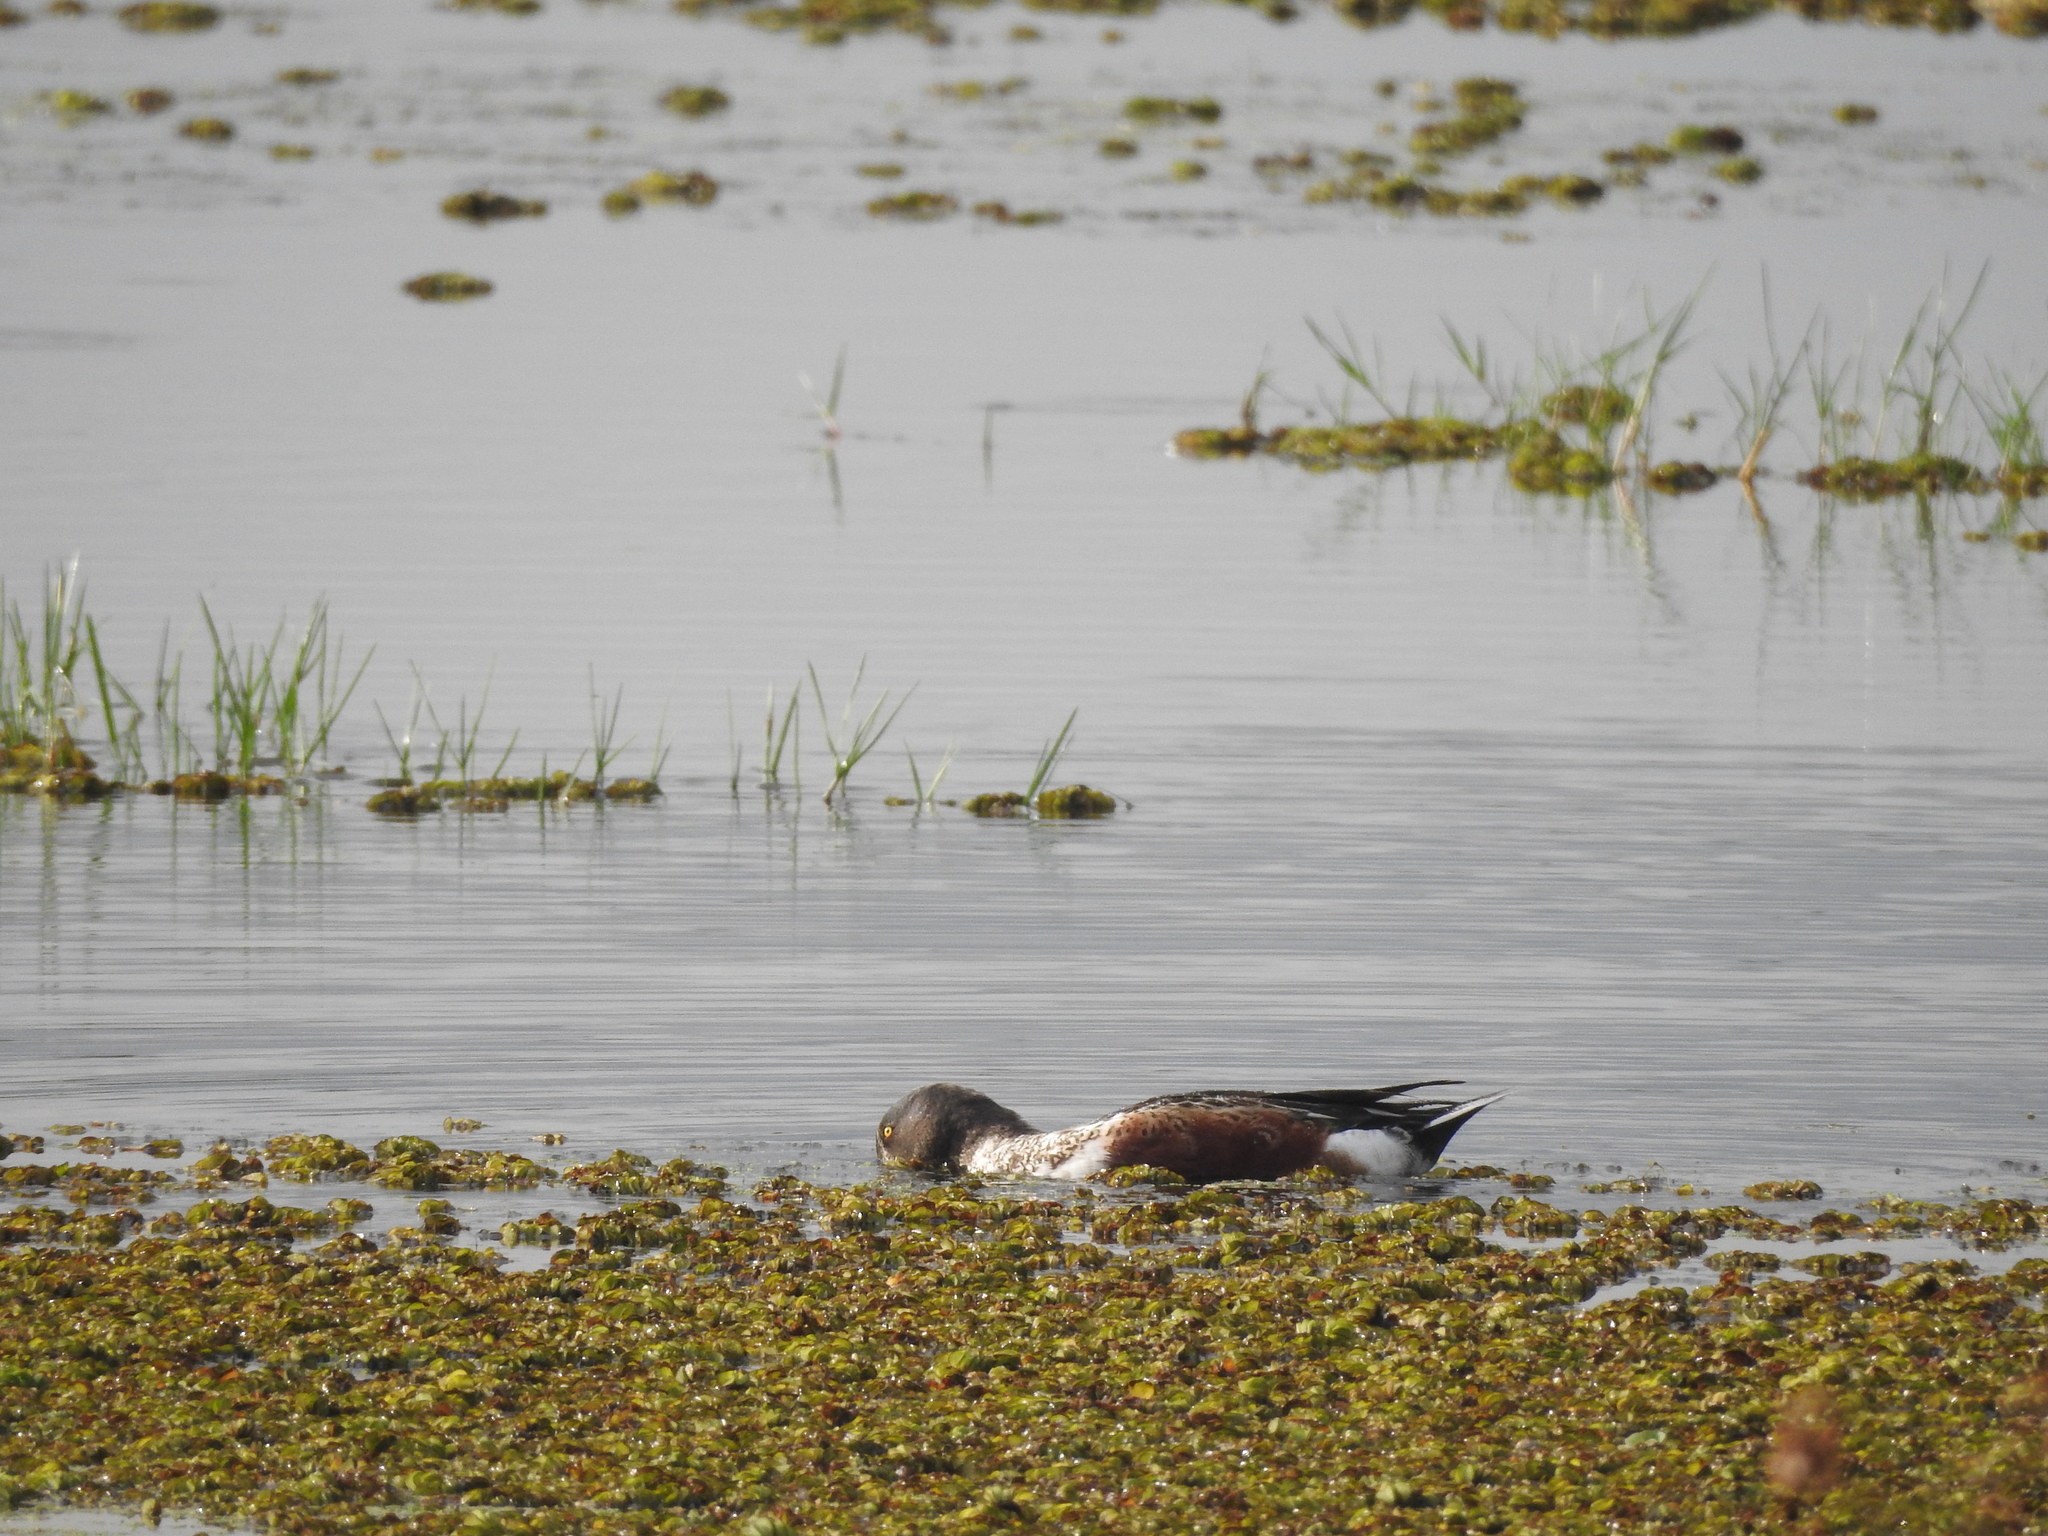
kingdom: Animalia
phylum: Chordata
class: Aves
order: Anseriformes
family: Anatidae
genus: Spatula
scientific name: Spatula clypeata
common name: Northern shoveler
